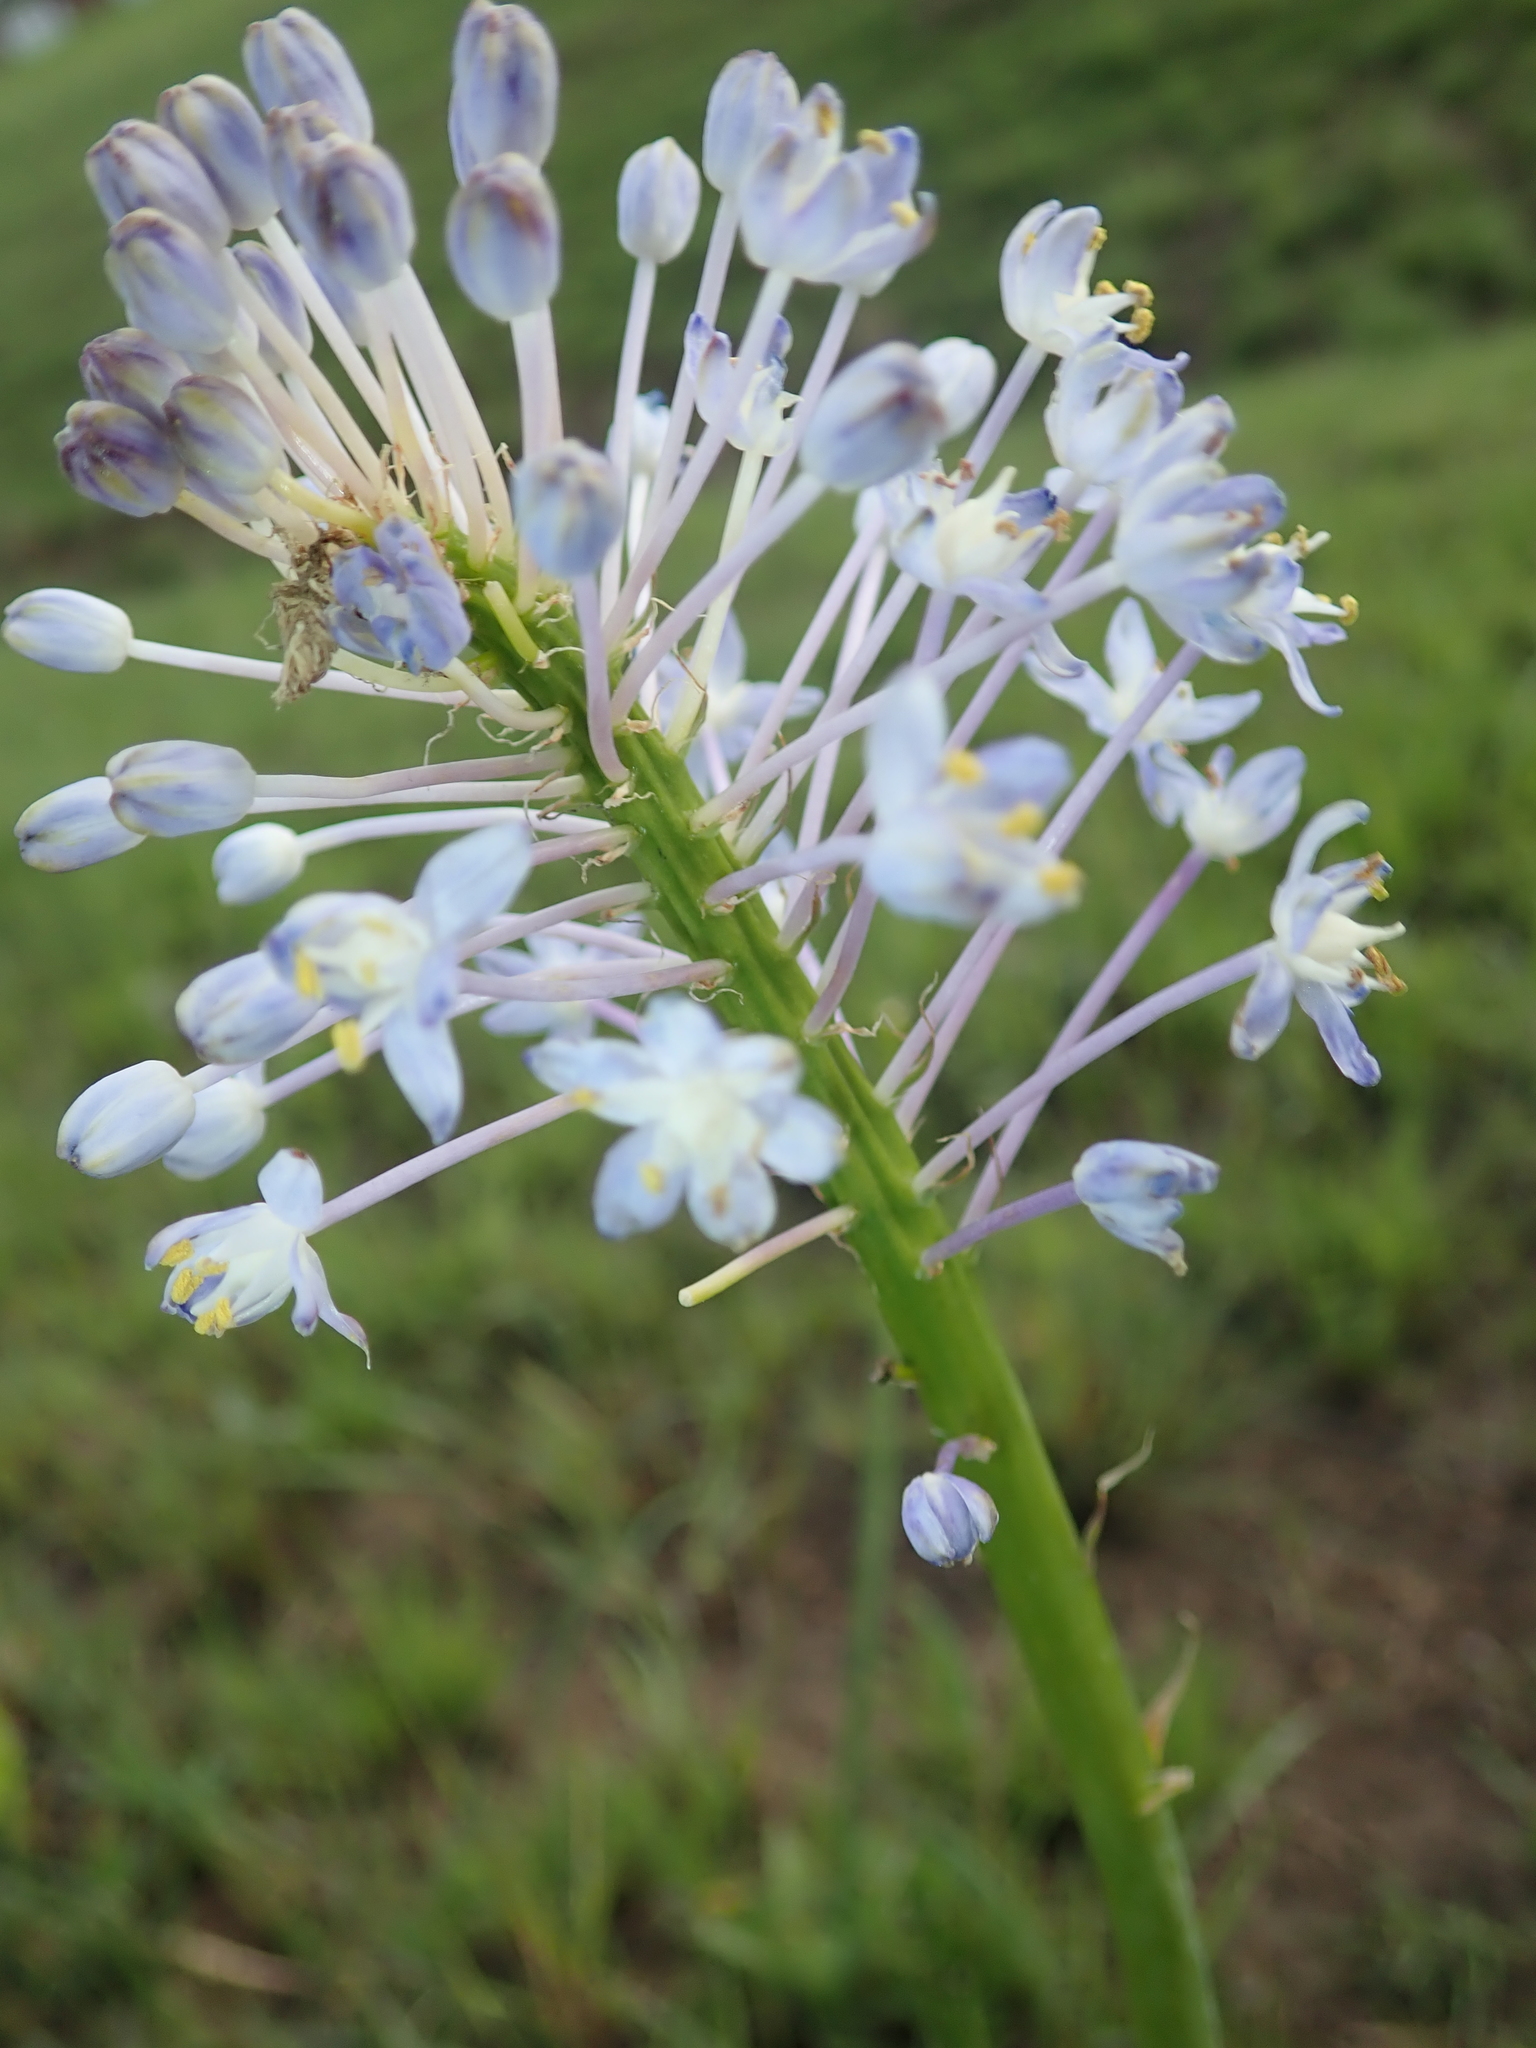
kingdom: Plantae
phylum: Tracheophyta
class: Liliopsida
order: Asparagales
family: Asparagaceae
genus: Merwilla
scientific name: Merwilla plumbea
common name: Blue-squill
